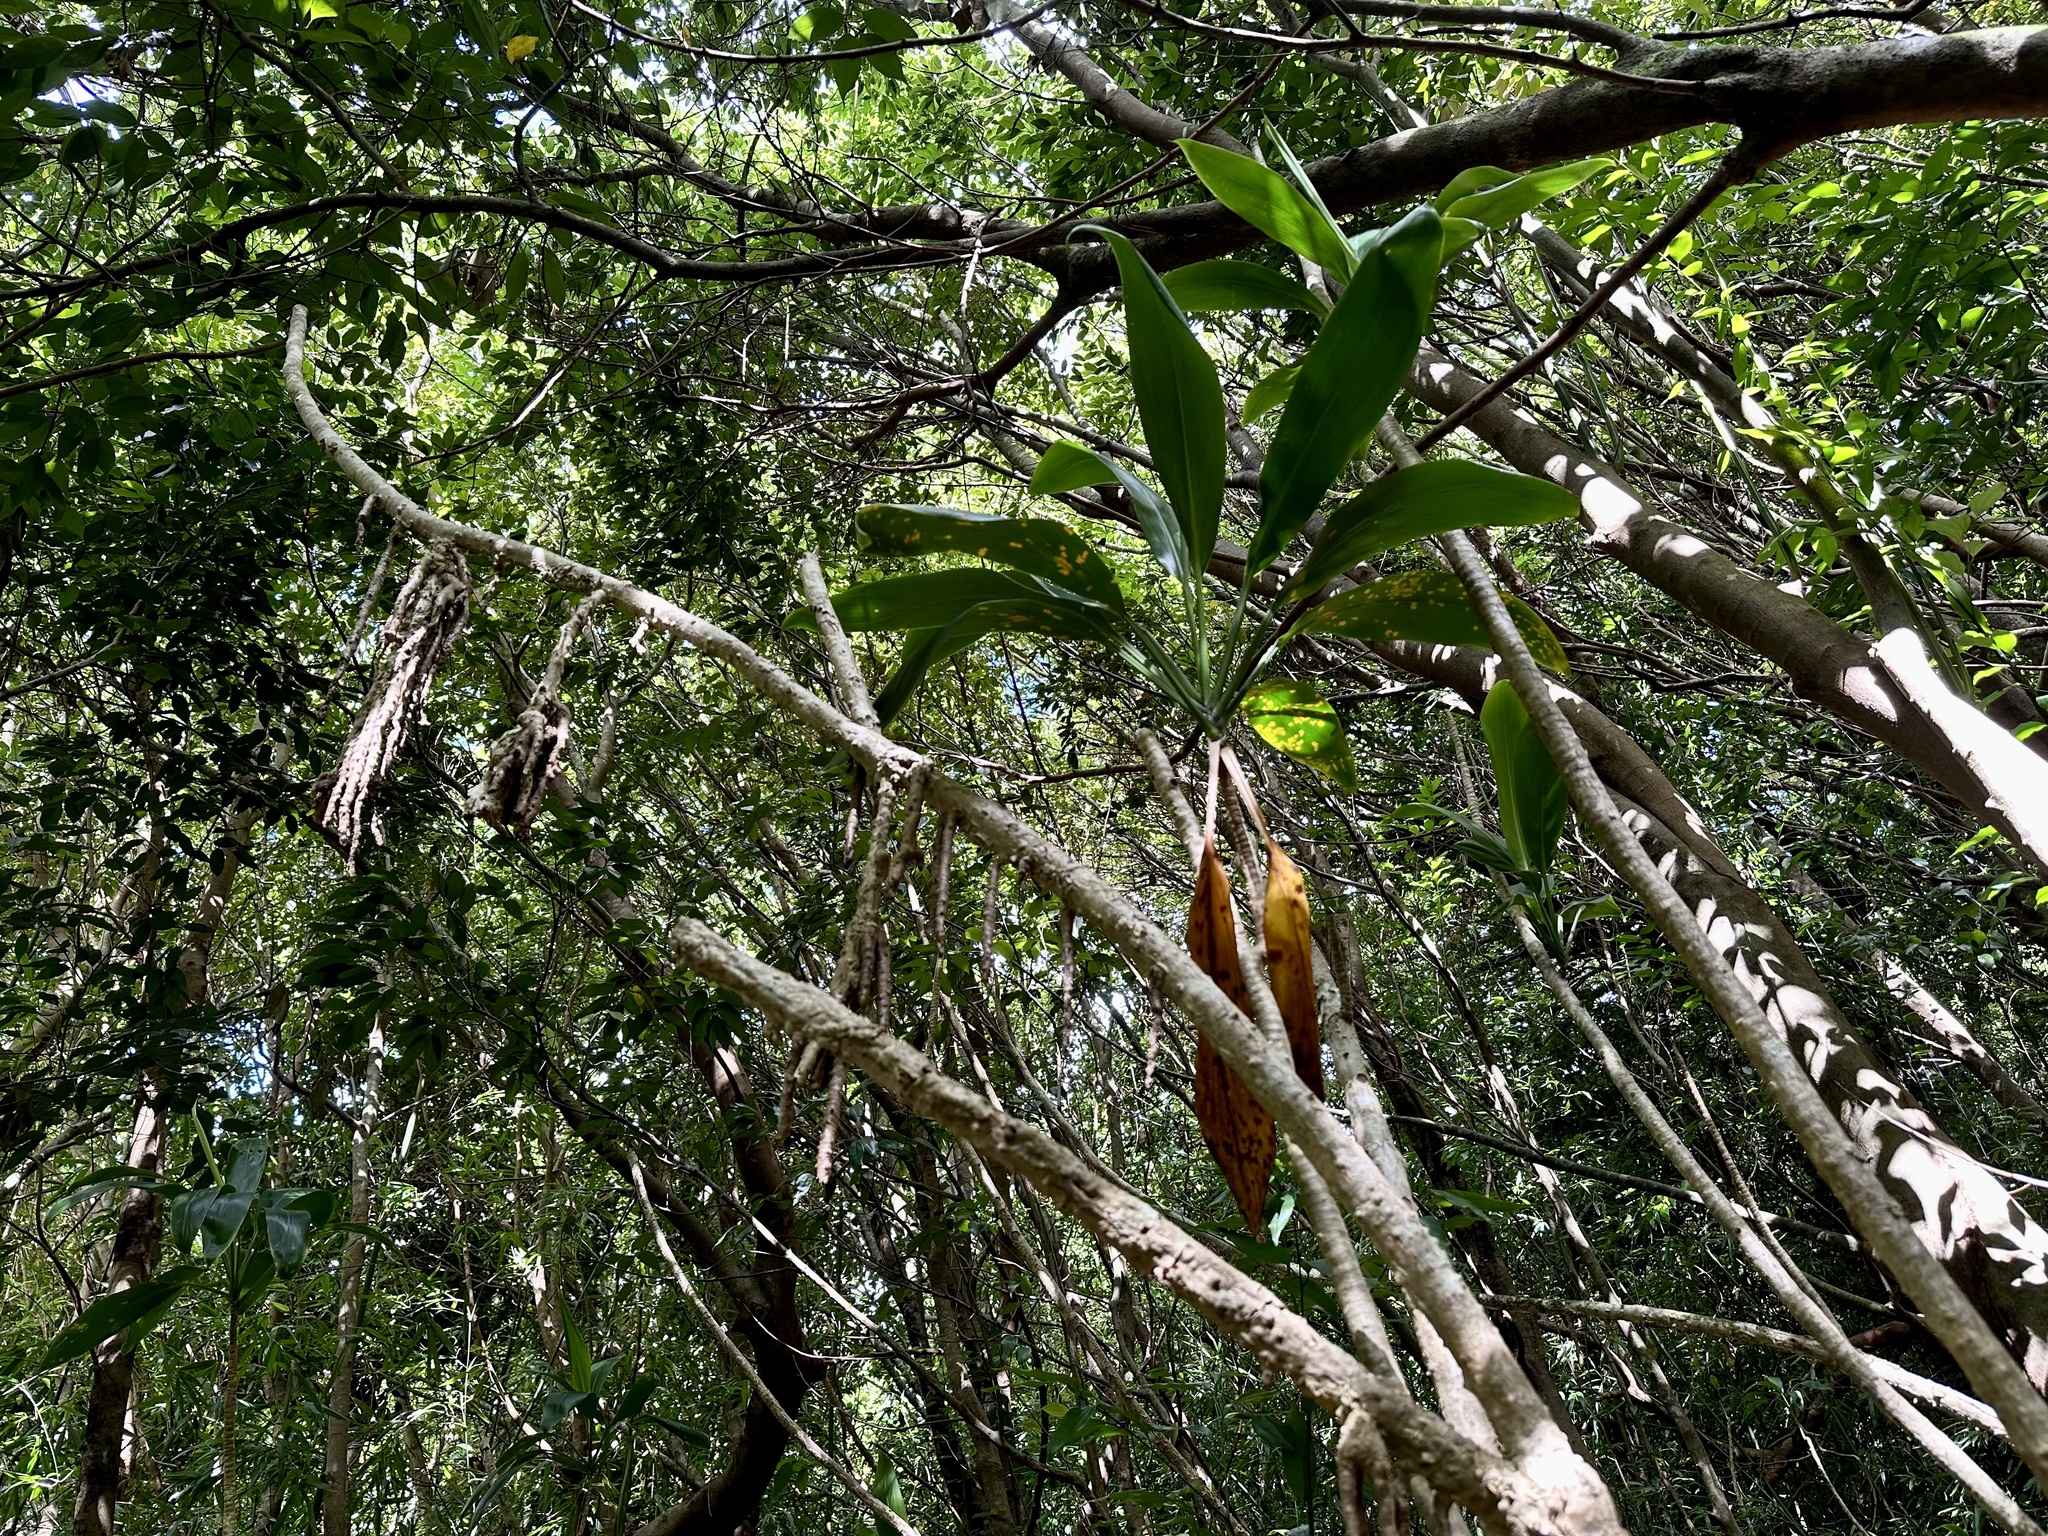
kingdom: Plantae
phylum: Tracheophyta
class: Liliopsida
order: Asparagales
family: Asparagaceae
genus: Cordyline
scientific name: Cordyline fruticosa
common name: Good-luck-plant
